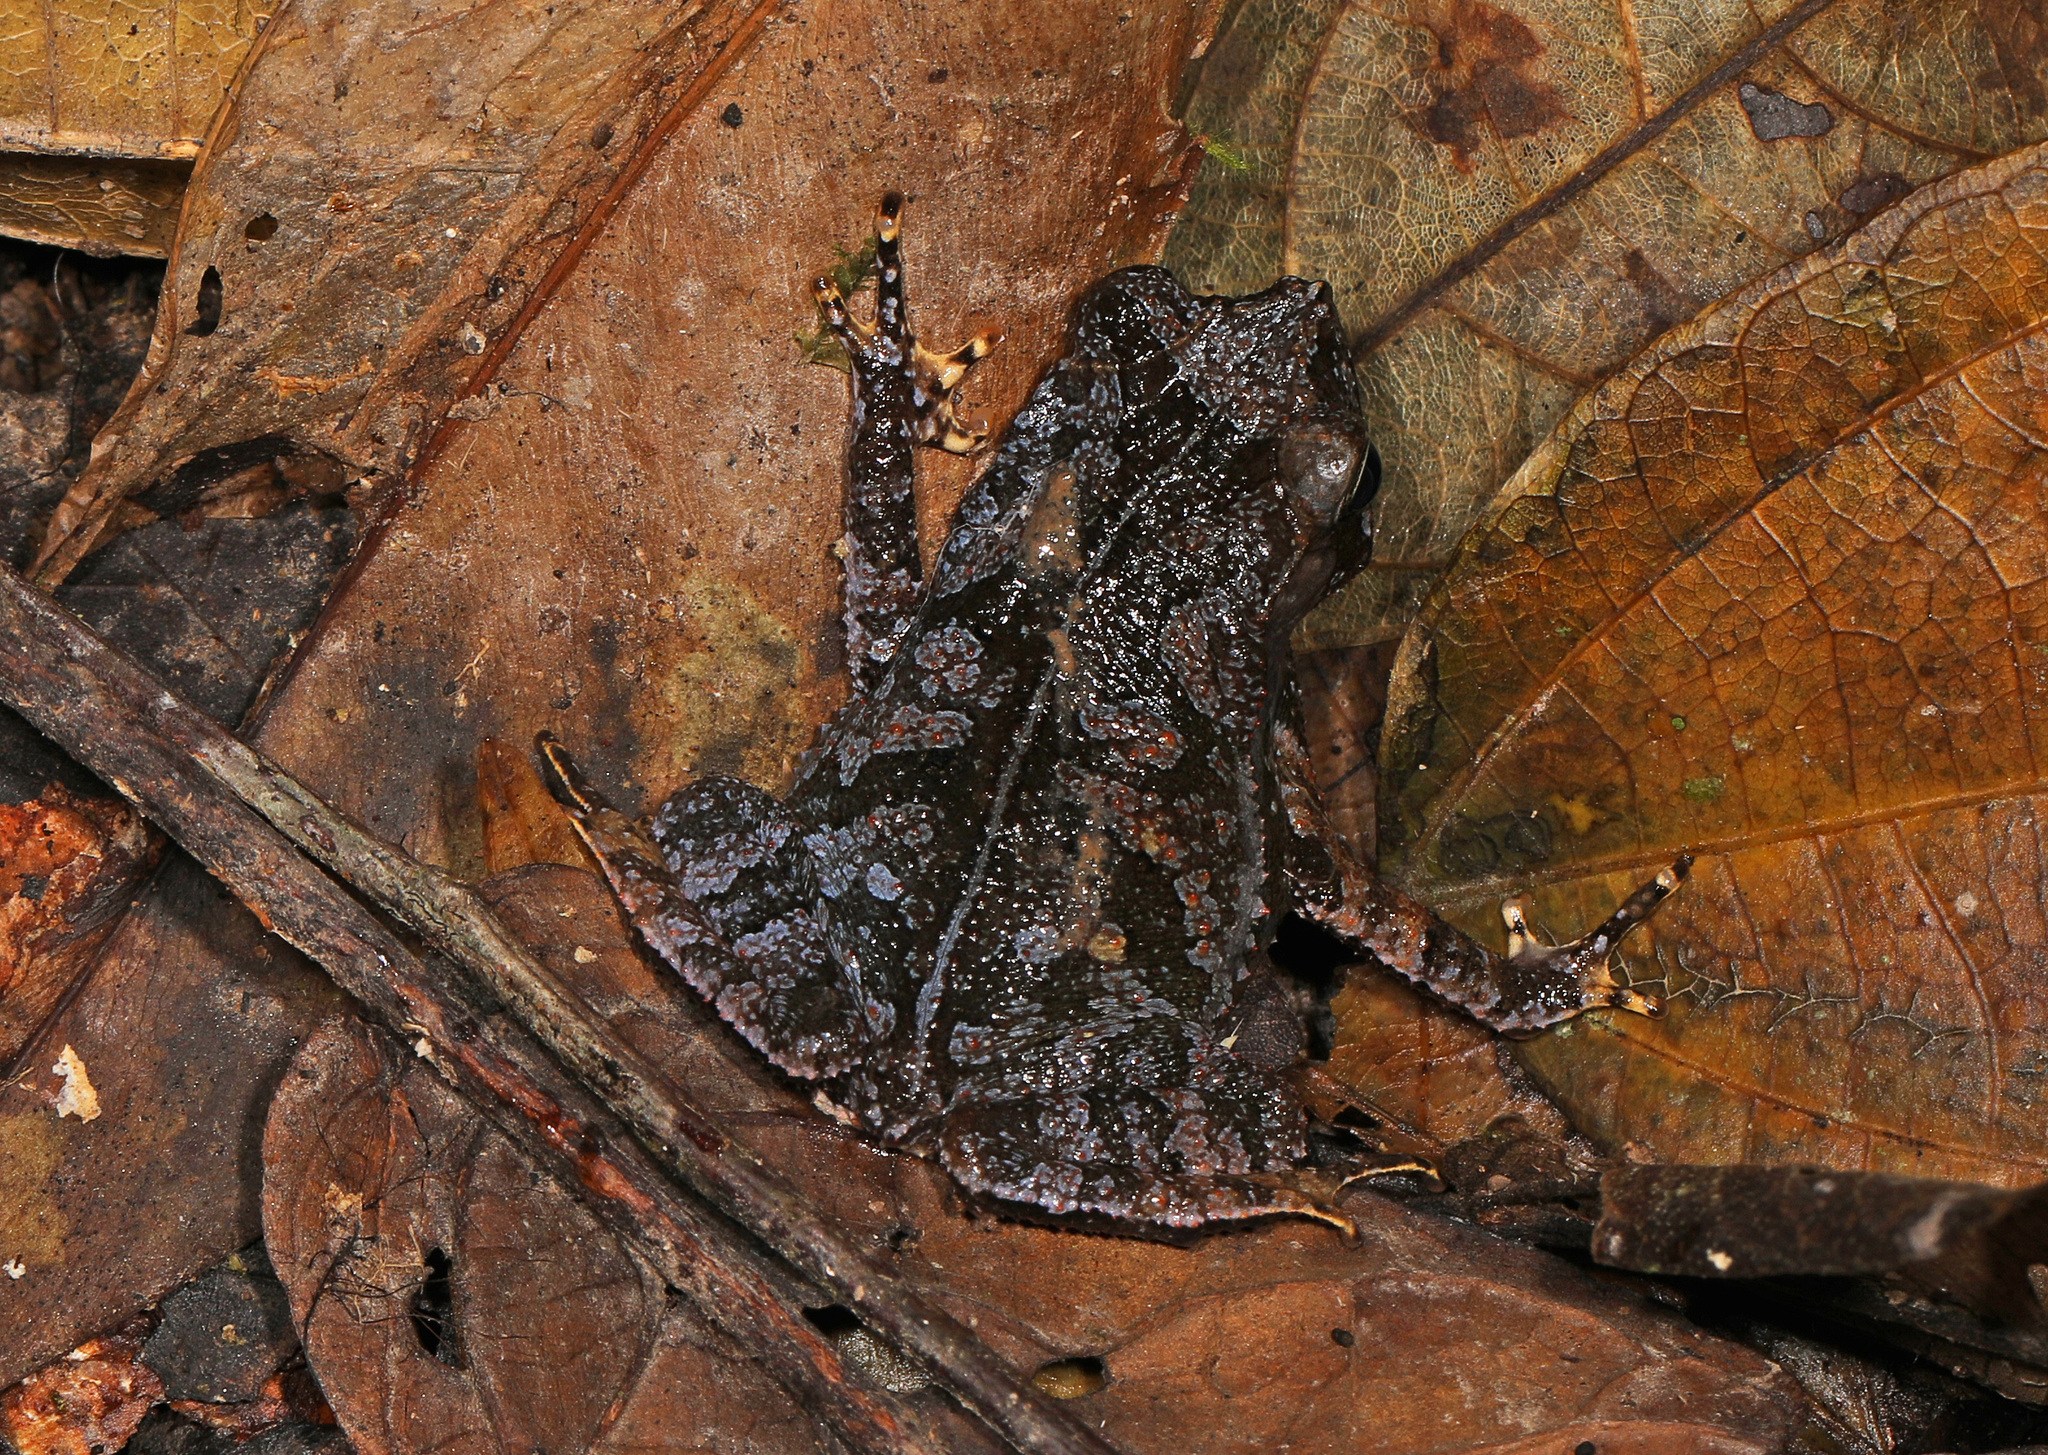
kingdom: Animalia
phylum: Chordata
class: Amphibia
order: Anura
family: Bufonidae
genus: Rhinella
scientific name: Rhinella margaritifera
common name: Mitred toad
